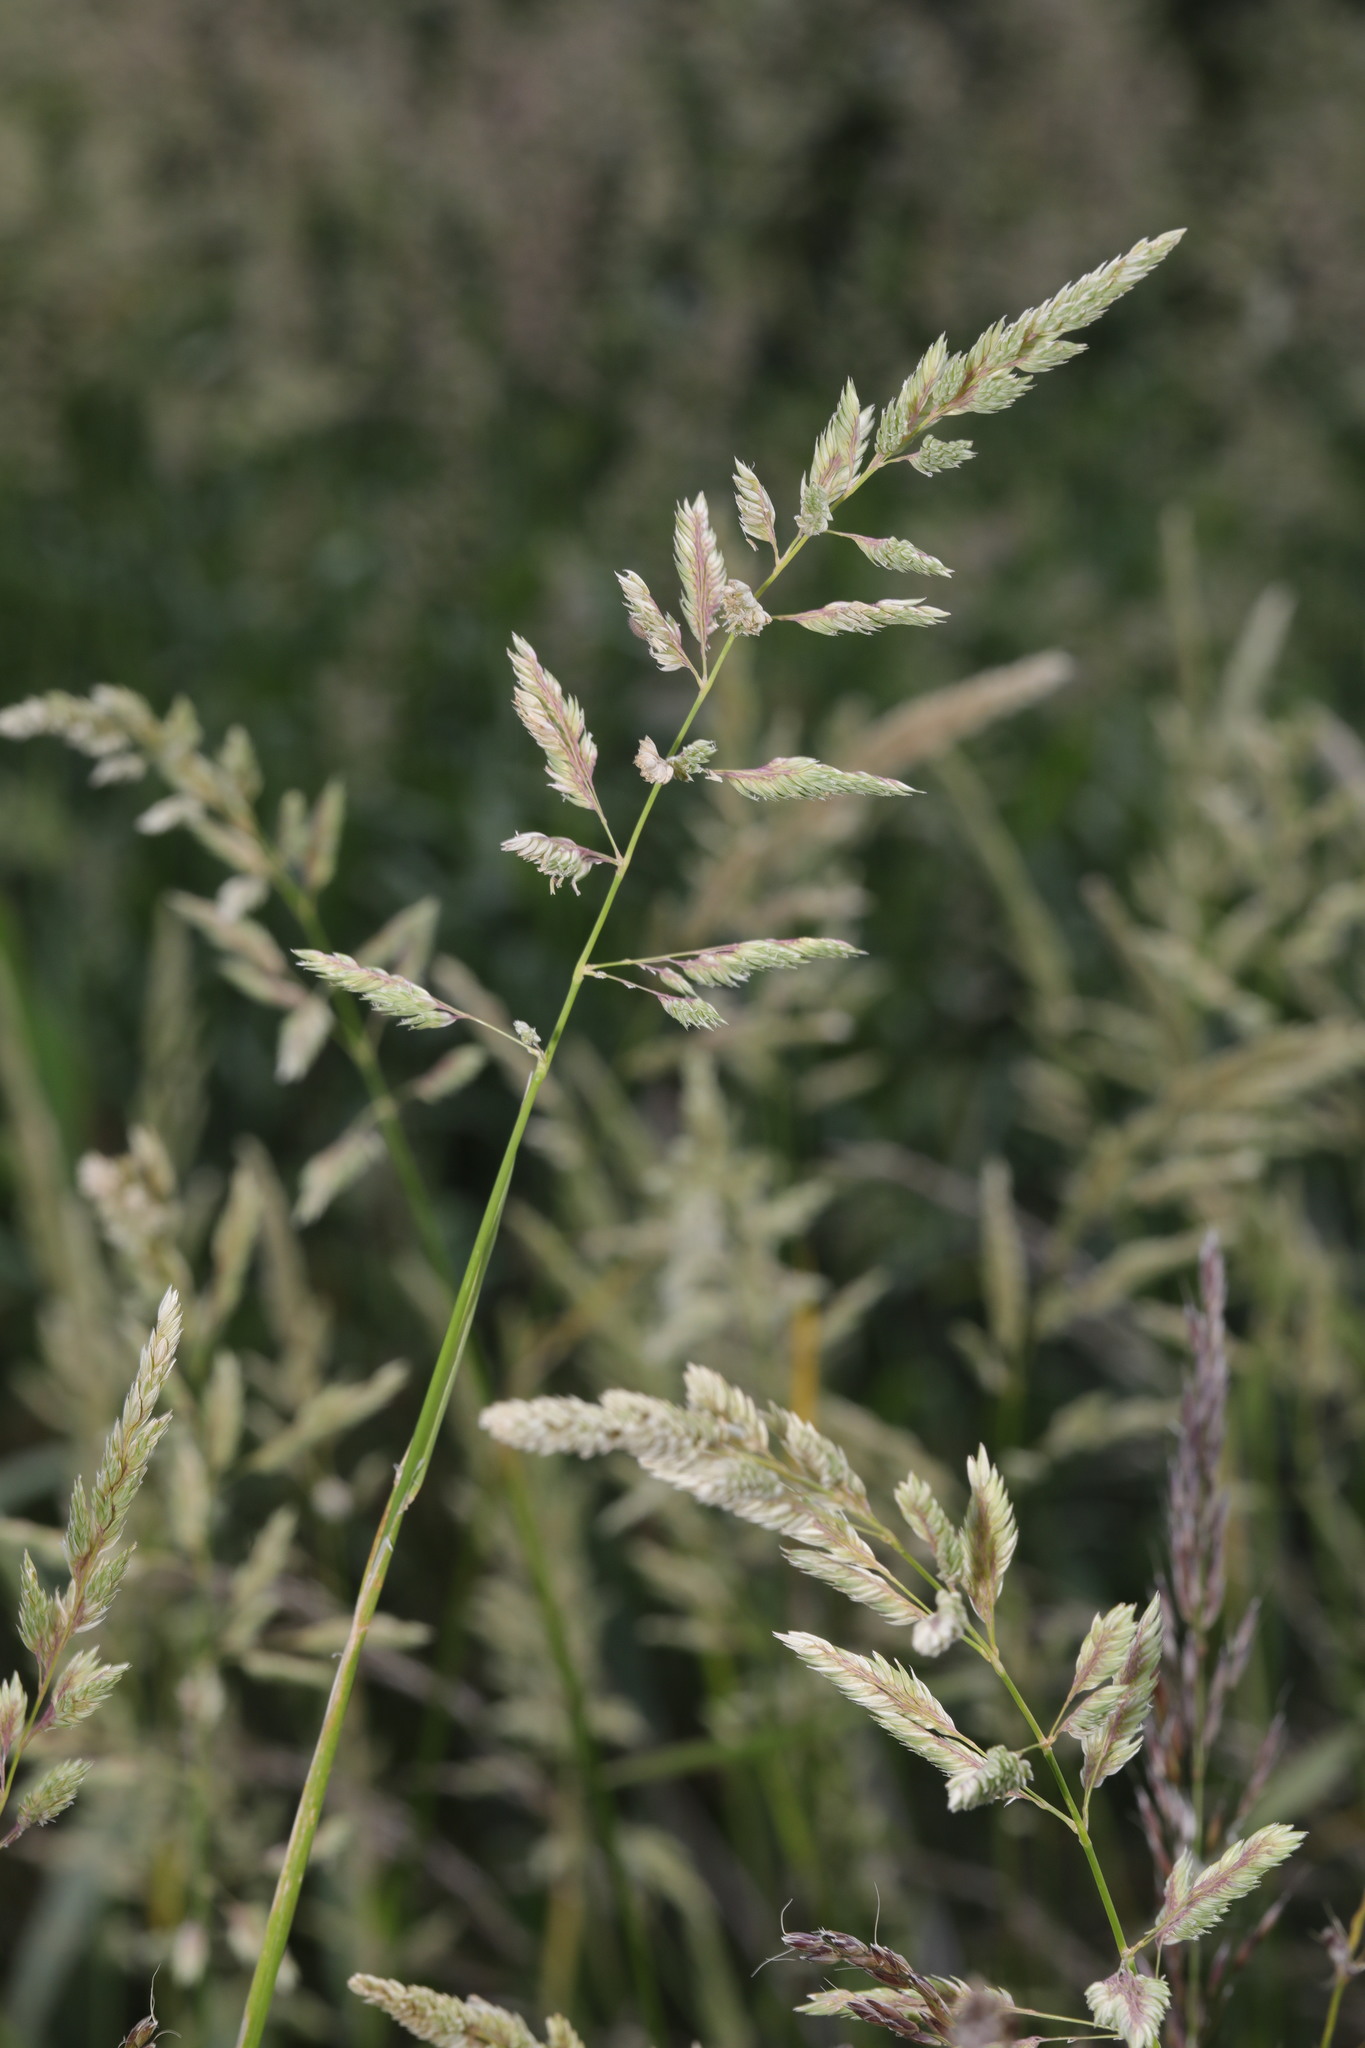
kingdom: Plantae
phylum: Tracheophyta
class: Liliopsida
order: Poales
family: Poaceae
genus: Phalaris
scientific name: Phalaris arundinacea
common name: Reed canary-grass
